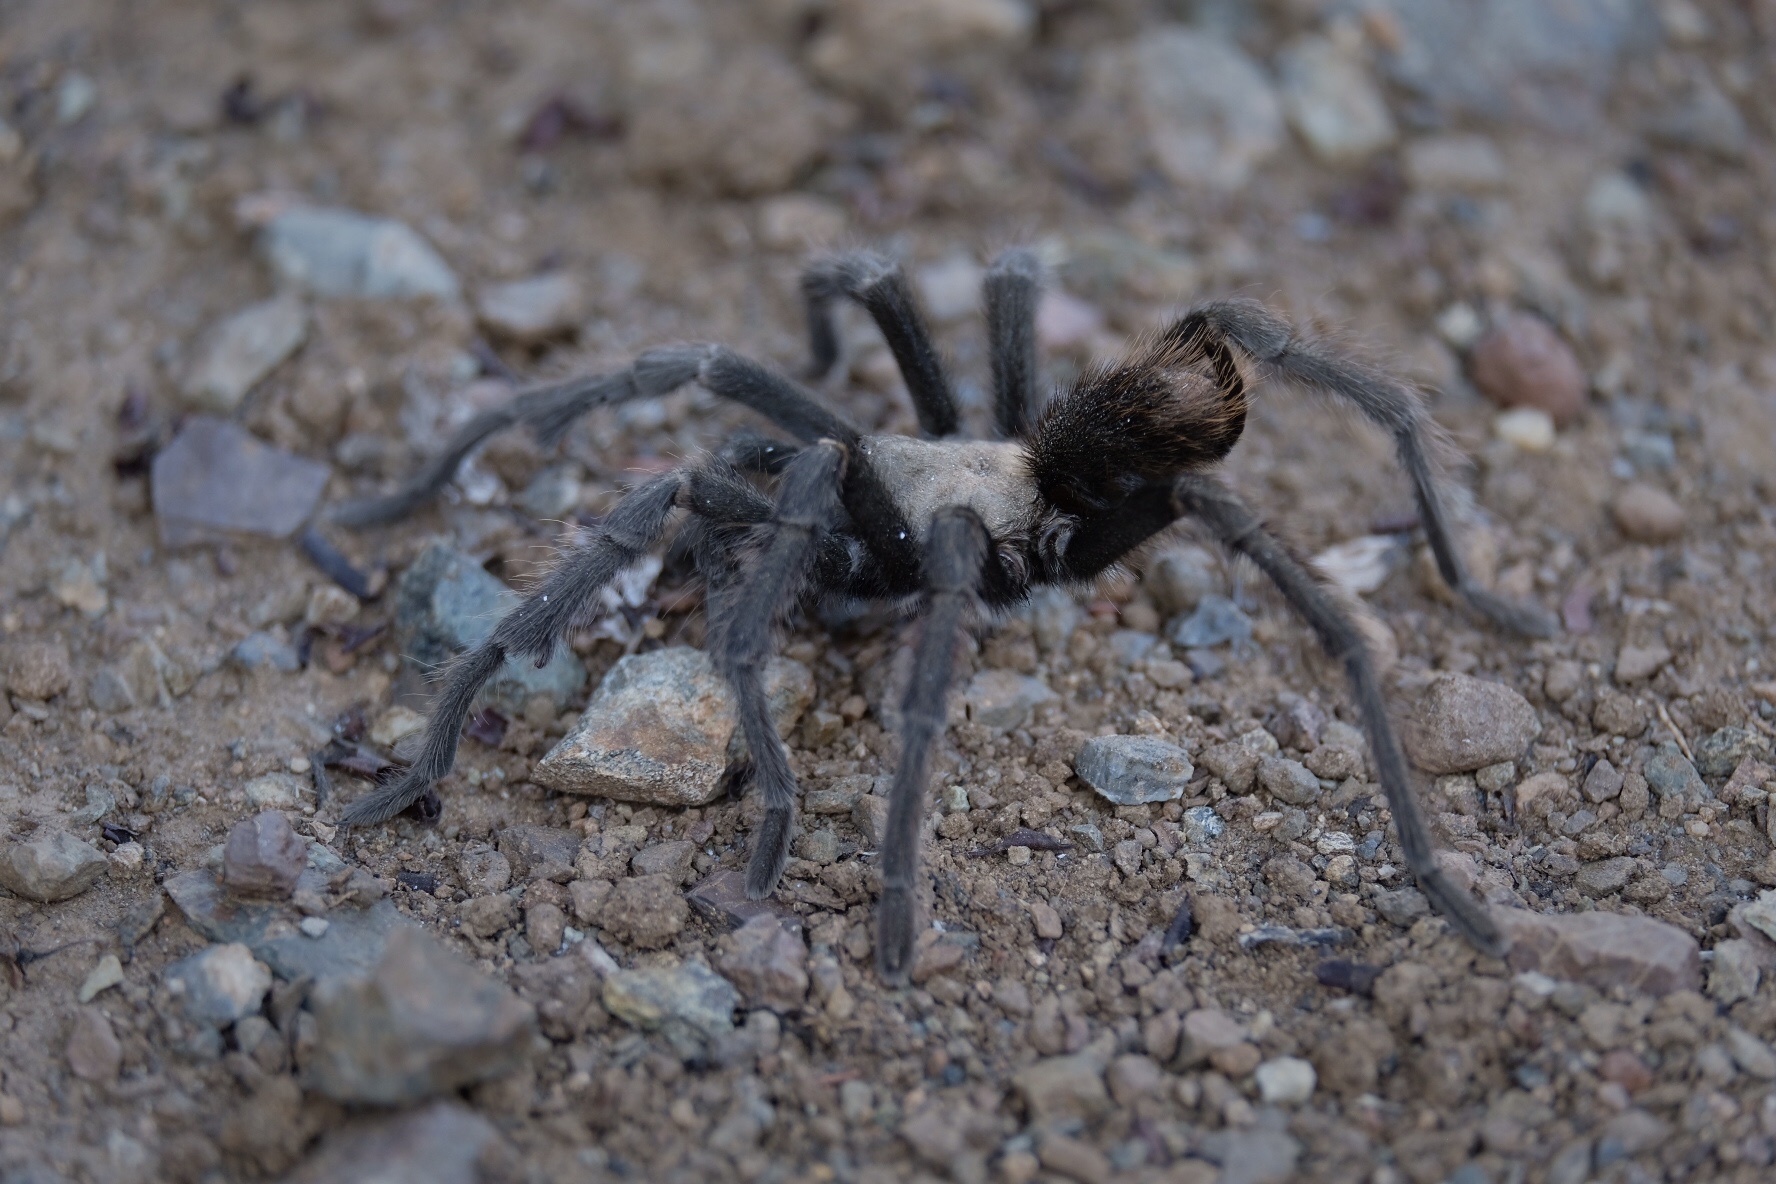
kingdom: Animalia
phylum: Arthropoda
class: Arachnida
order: Araneae
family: Theraphosidae
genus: Aphonopelma
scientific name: Aphonopelma iodius
